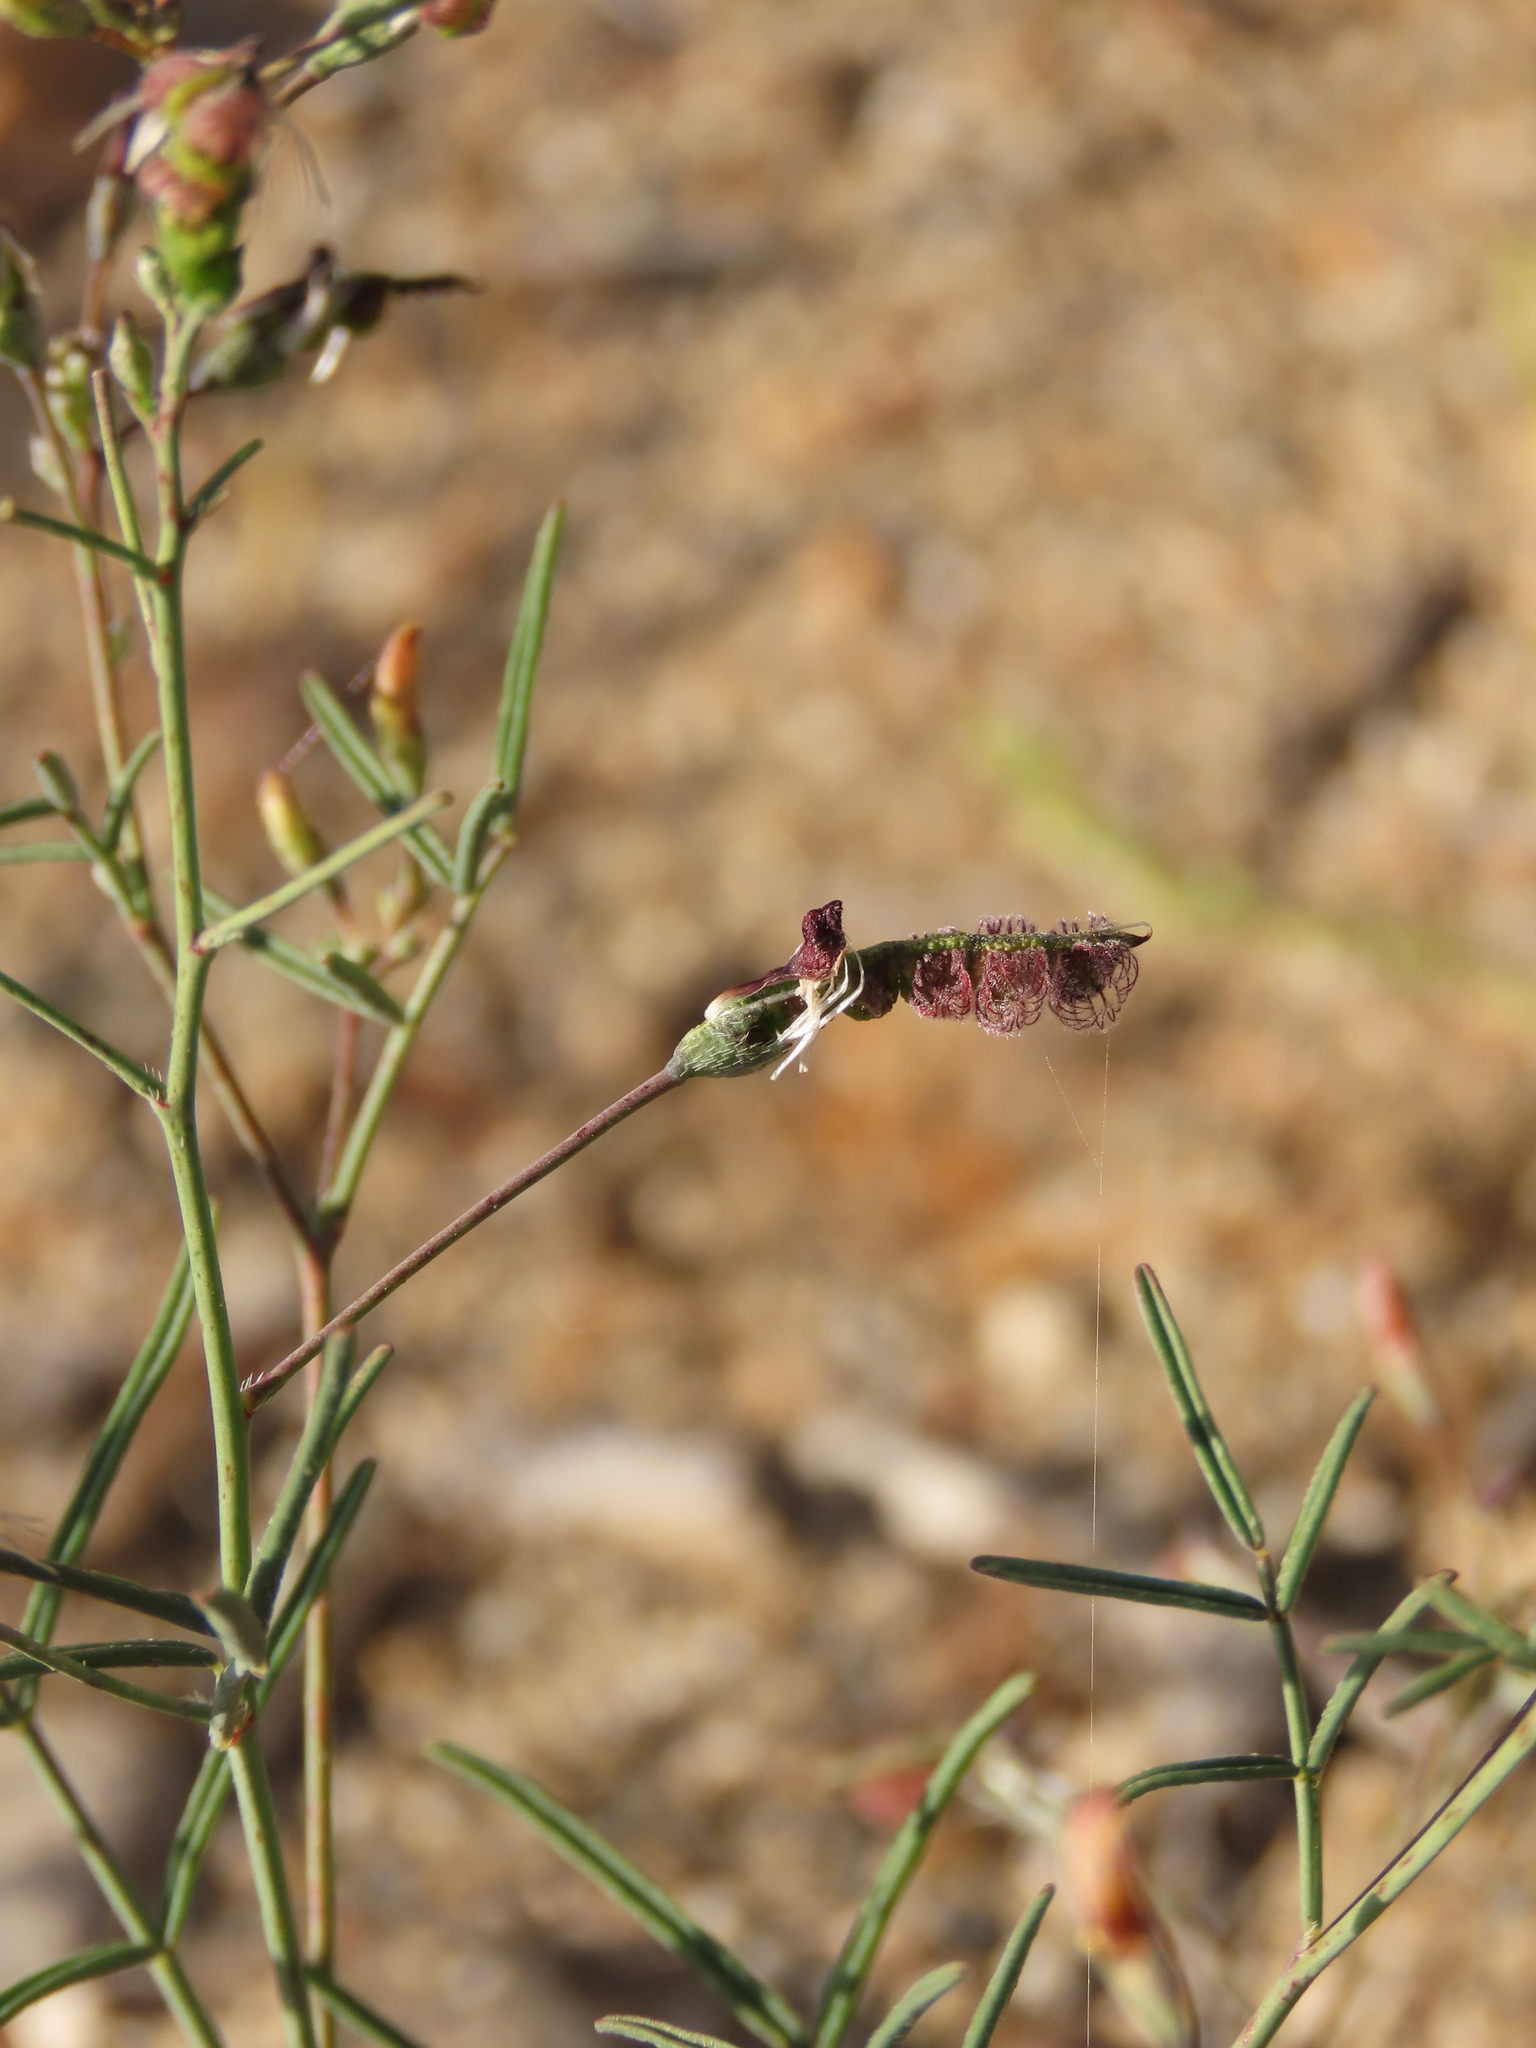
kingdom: Plantae
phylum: Tracheophyta
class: Magnoliopsida
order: Fabales
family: Fabaceae
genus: Adesmia
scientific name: Adesmia filifolia
